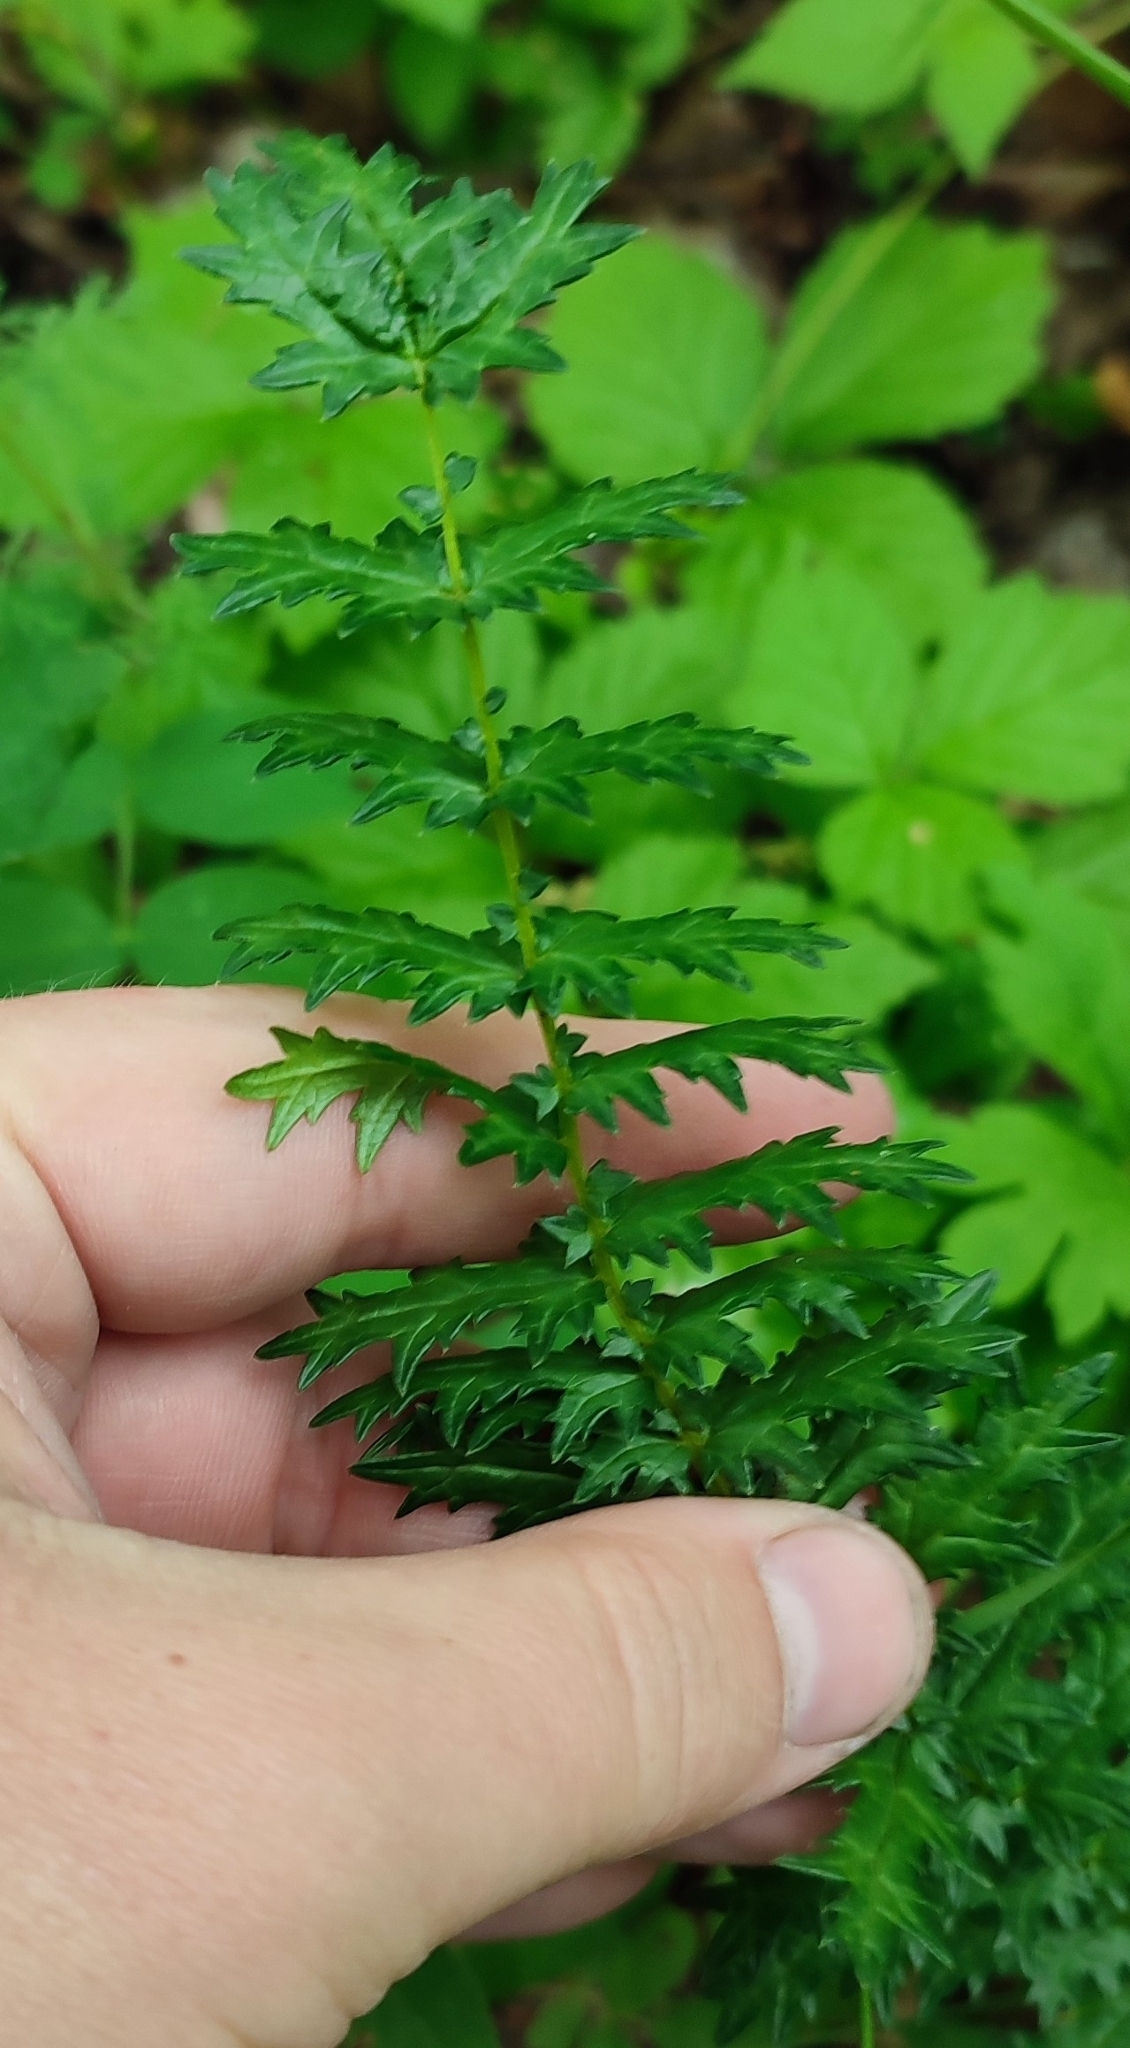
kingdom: Plantae
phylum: Tracheophyta
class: Magnoliopsida
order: Rosales
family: Rosaceae
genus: Filipendula
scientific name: Filipendula vulgaris
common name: Dropwort
